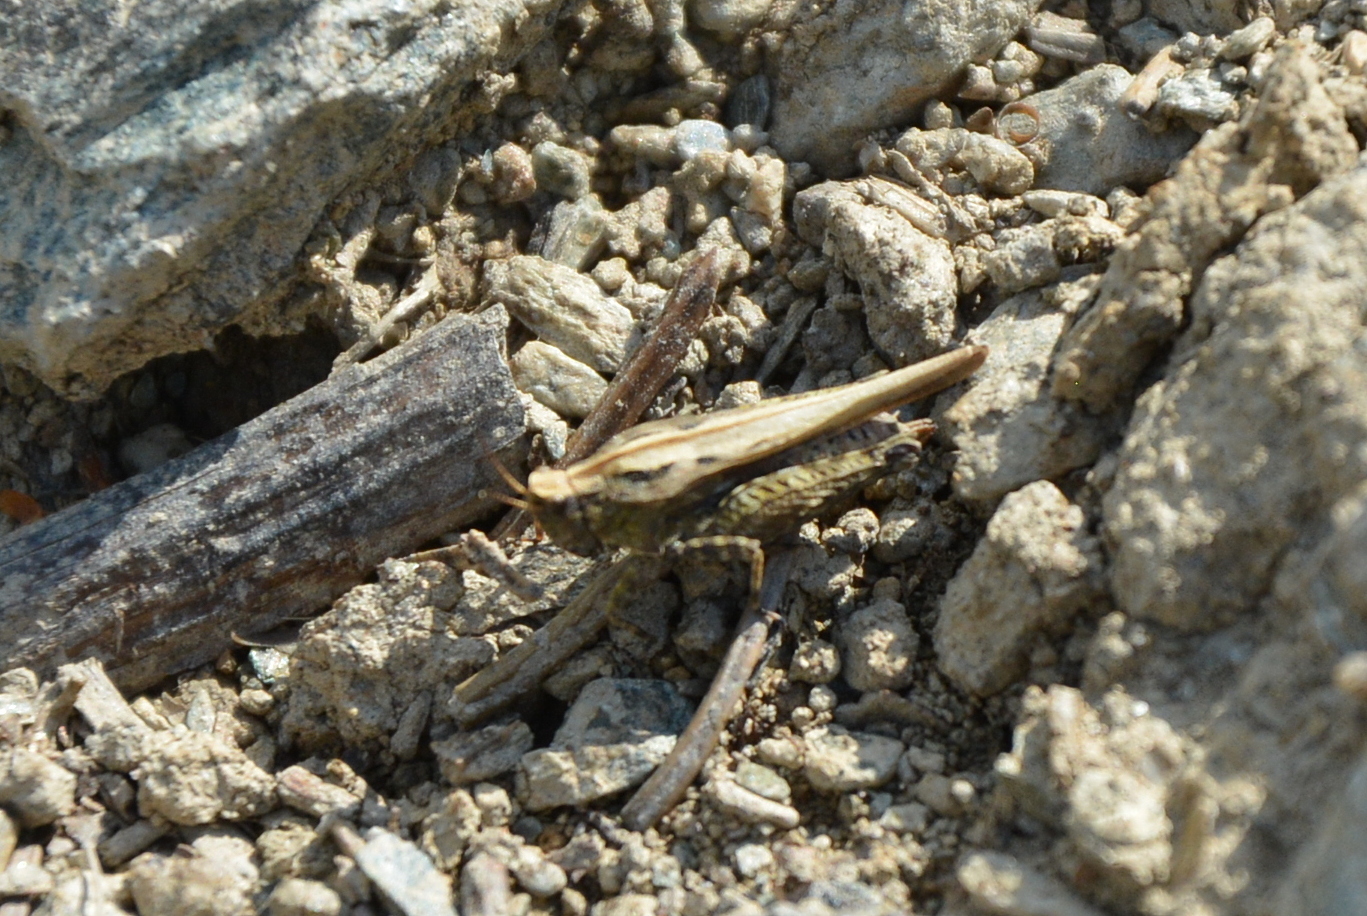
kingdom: Animalia
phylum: Arthropoda
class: Insecta
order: Orthoptera
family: Tetrigidae
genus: Tetrix
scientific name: Tetrix subulata
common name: Slender ground-hopper
